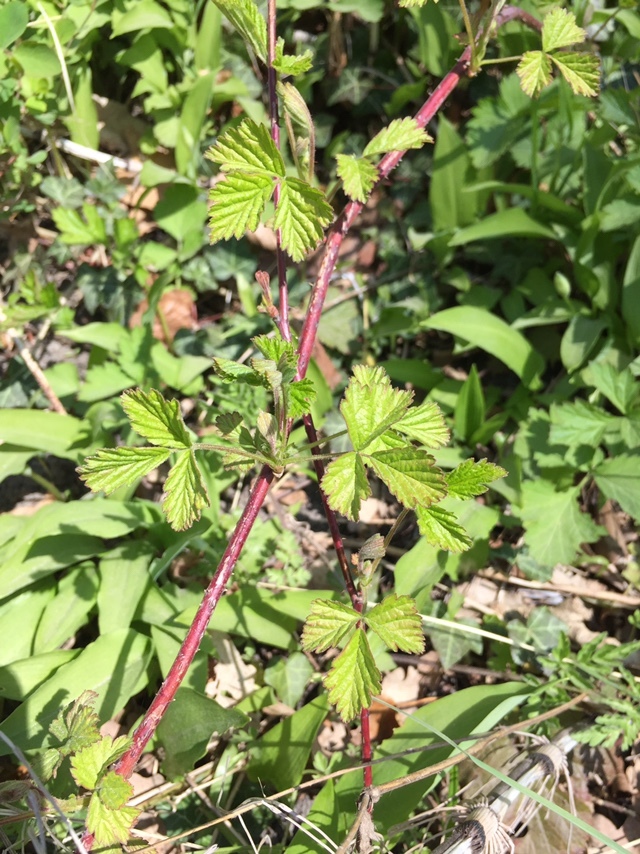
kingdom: Plantae
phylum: Tracheophyta
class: Magnoliopsida
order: Rosales
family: Rosaceae
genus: Rubus
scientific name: Rubus caesius
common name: Dewberry
